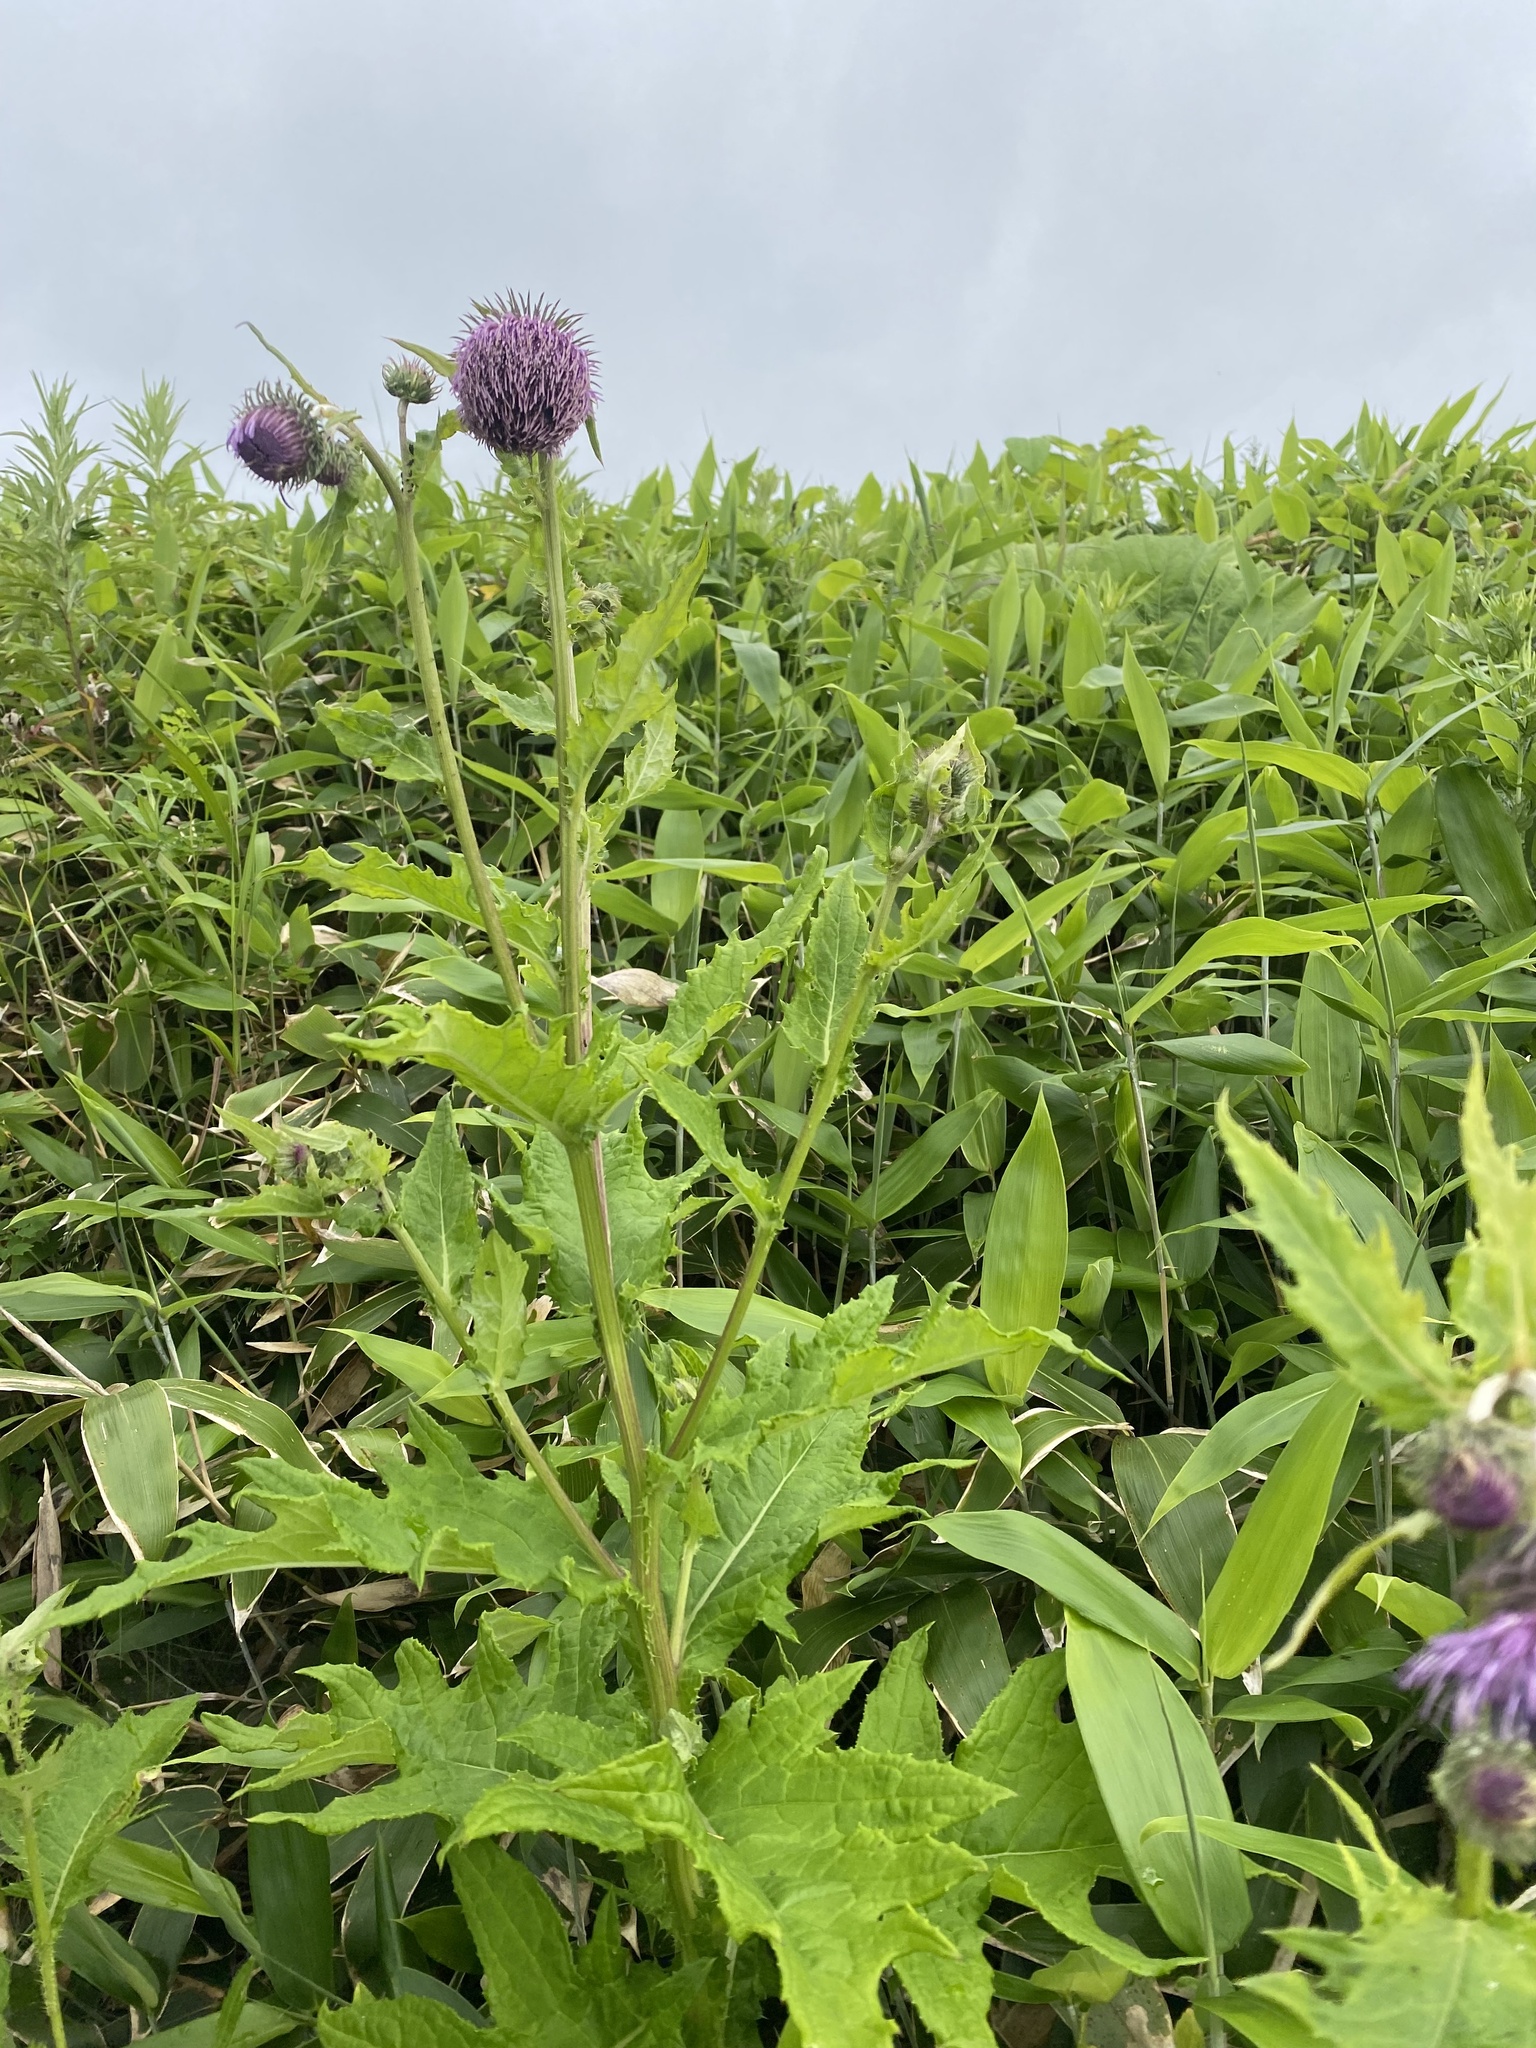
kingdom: Plantae
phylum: Tracheophyta
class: Magnoliopsida
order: Asterales
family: Asteraceae
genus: Cirsium
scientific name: Cirsium kamtschaticum
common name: Kamchatka thistle
